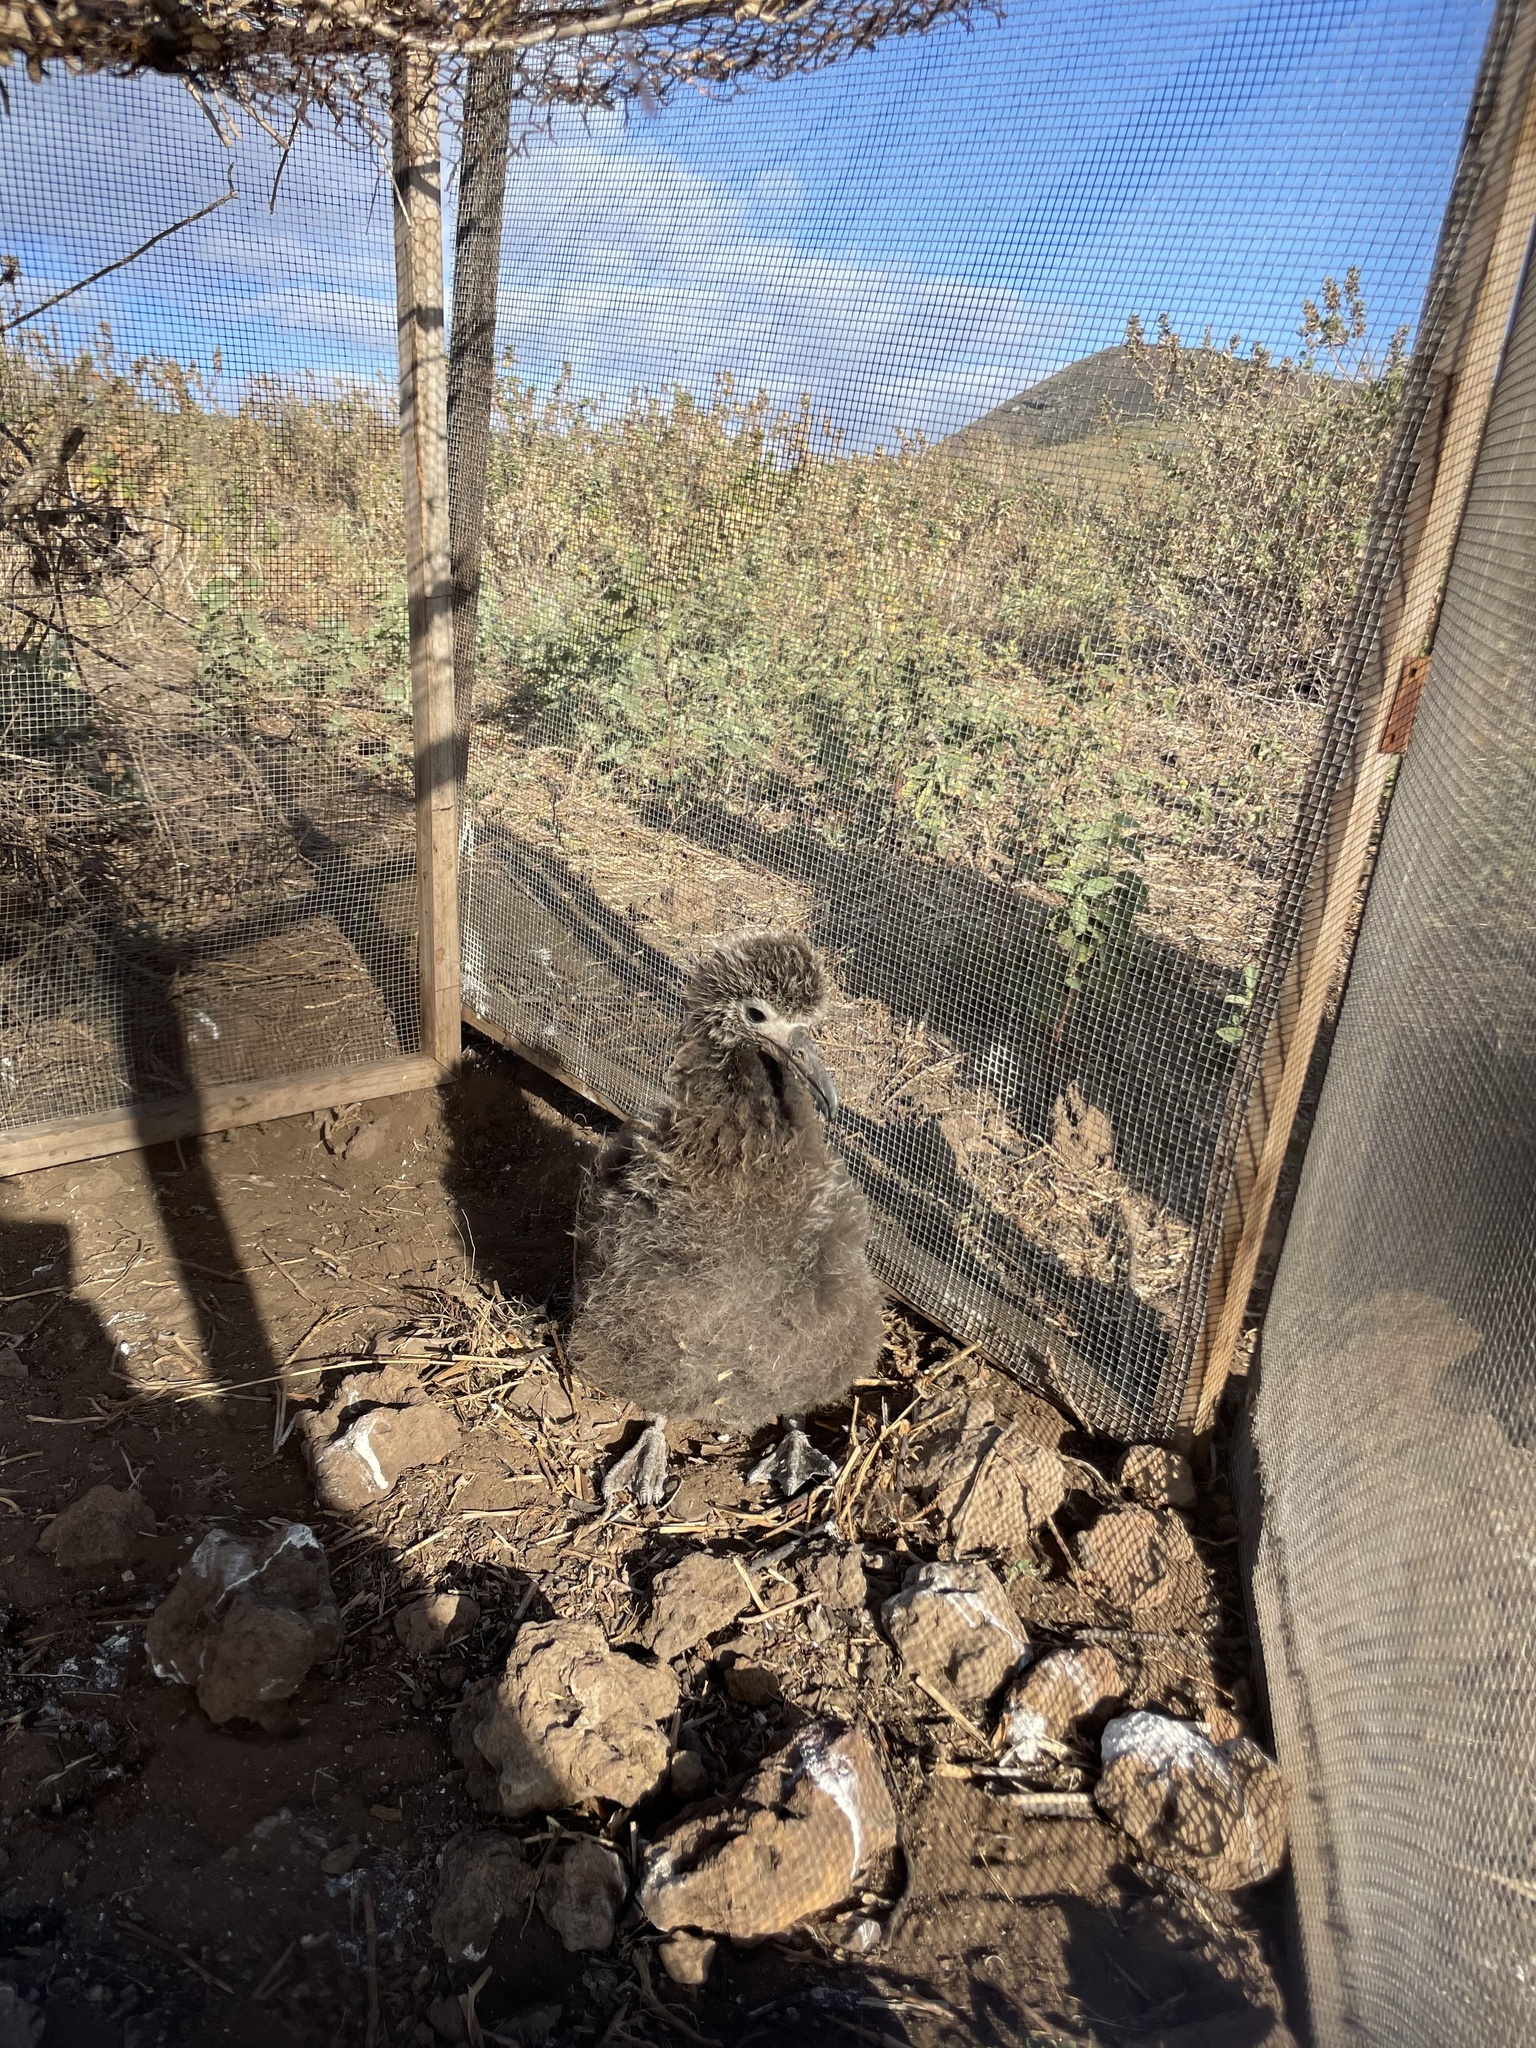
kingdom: Animalia
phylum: Chordata
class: Aves
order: Procellariiformes
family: Diomedeidae
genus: Phoebastria
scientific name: Phoebastria immutabilis
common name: Laysan albatross
